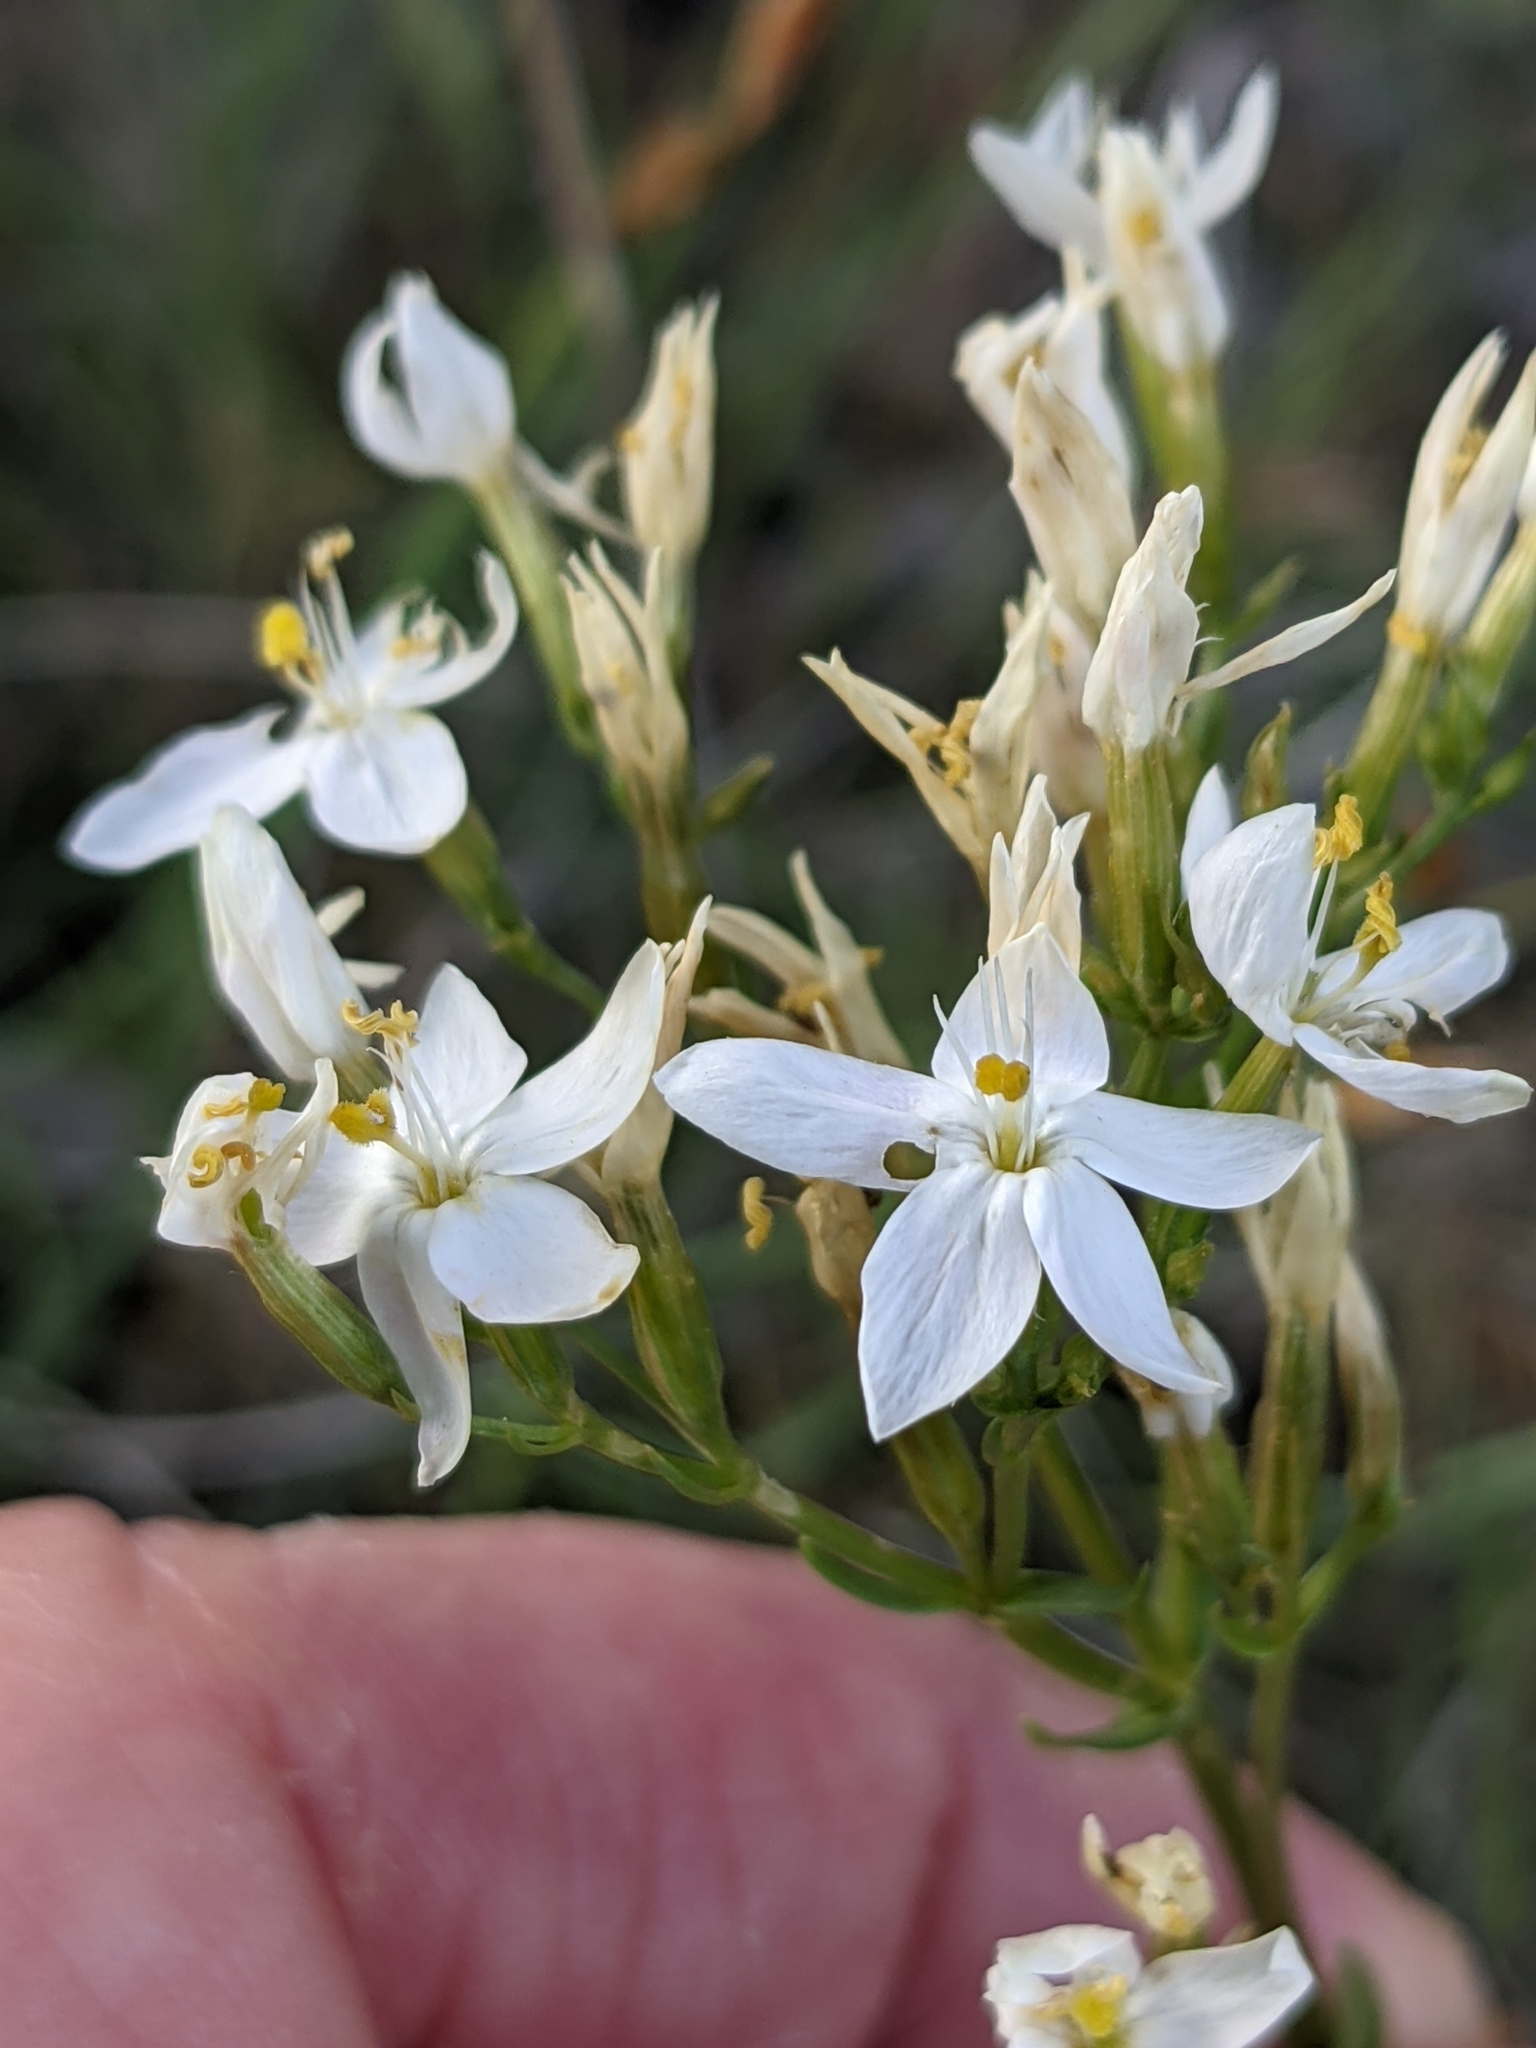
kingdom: Plantae
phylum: Tracheophyta
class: Magnoliopsida
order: Gentianales
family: Gentianaceae
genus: Centaurium
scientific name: Centaurium erythraea
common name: Common centaury
